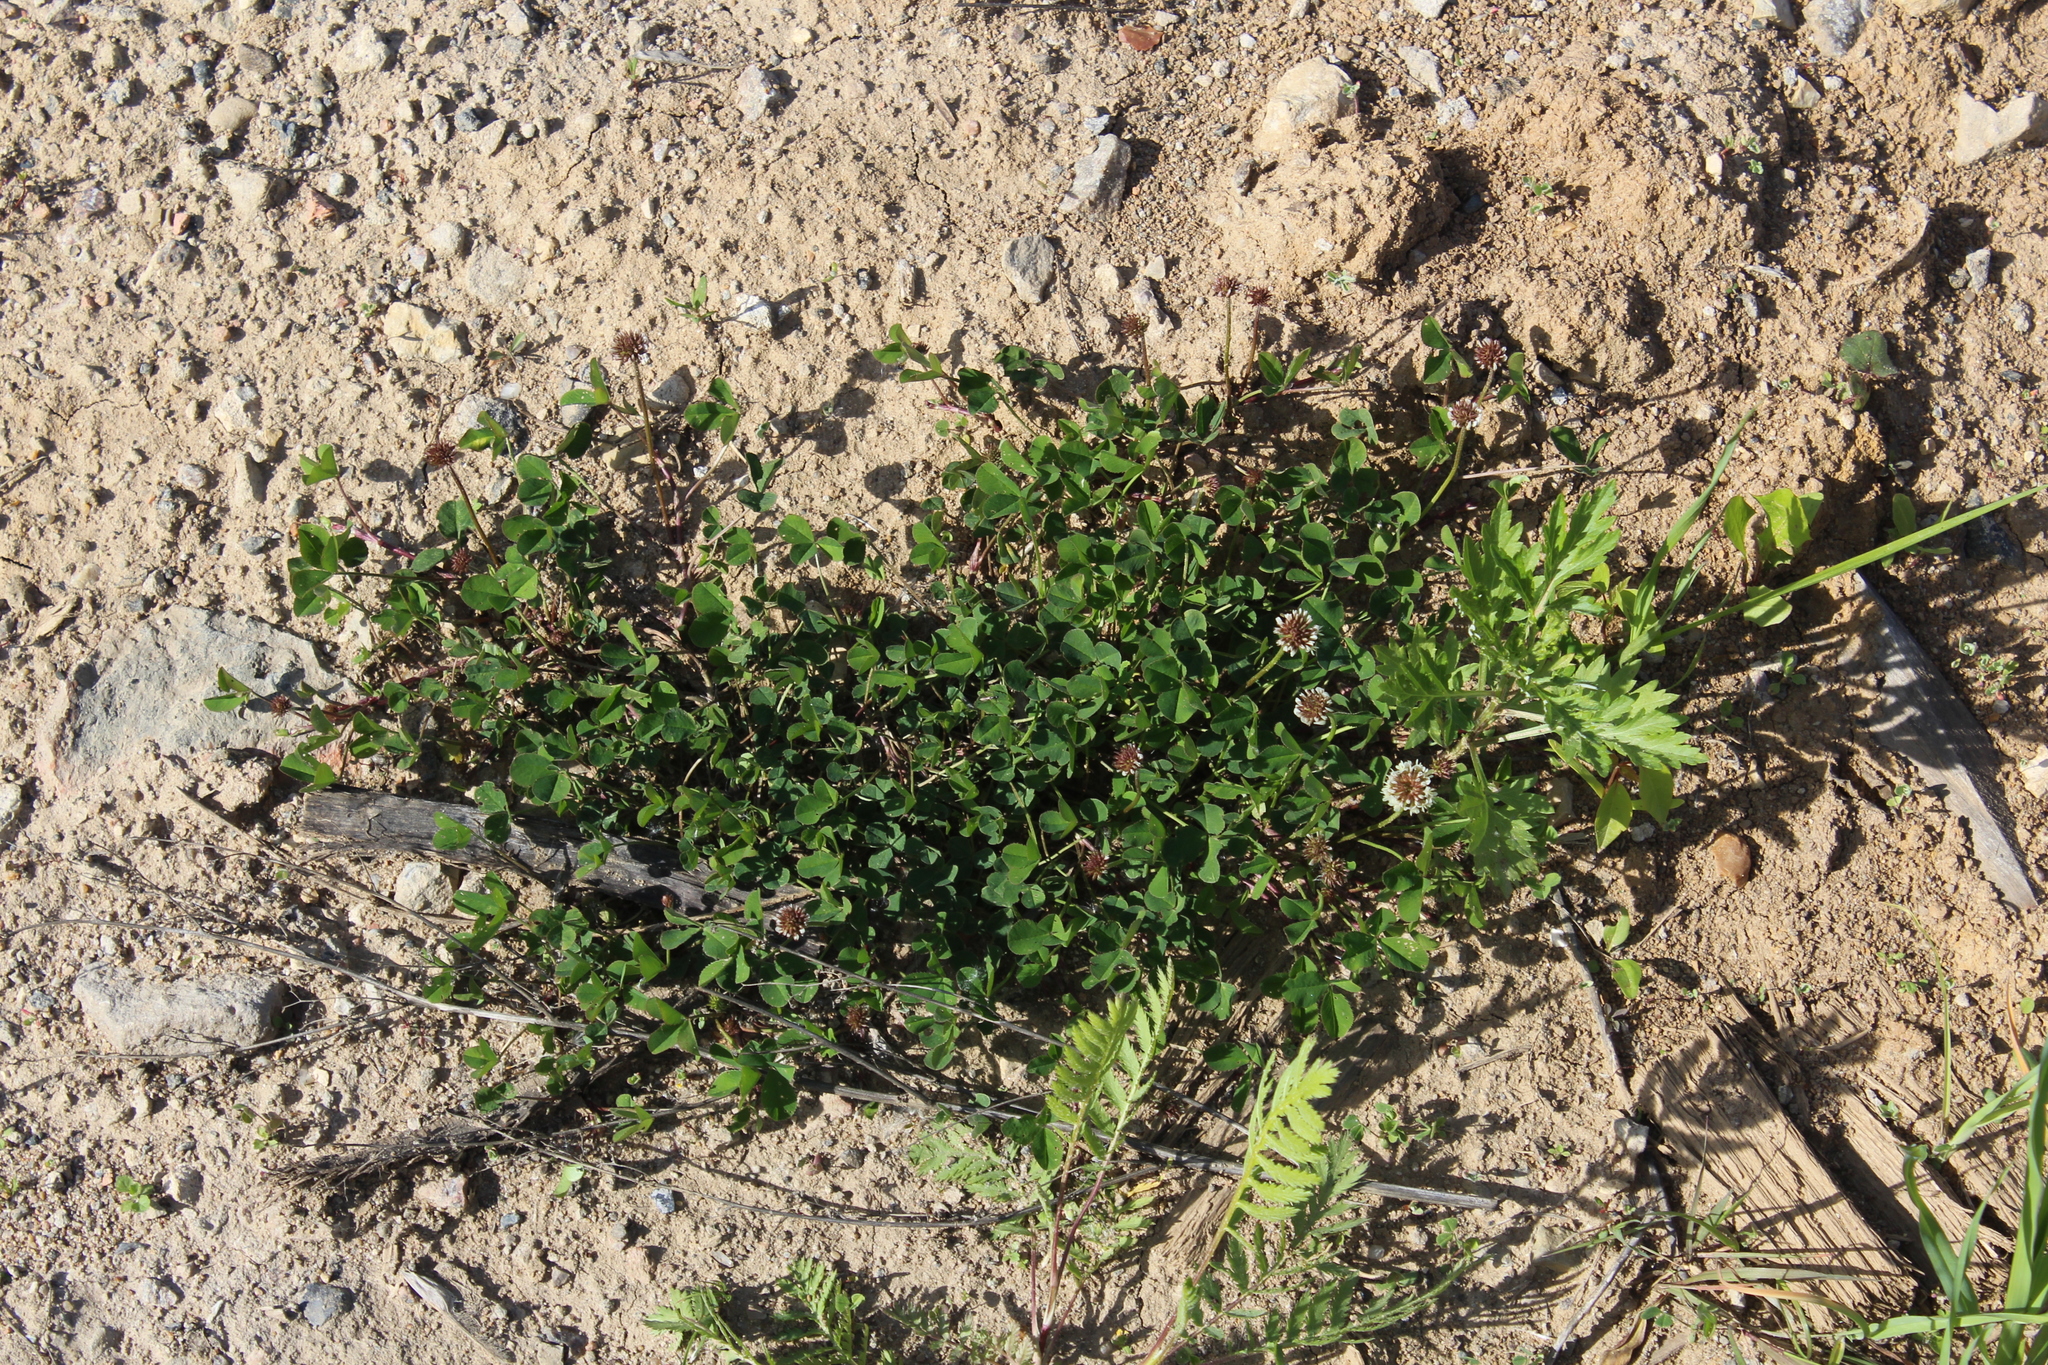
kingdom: Plantae
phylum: Tracheophyta
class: Magnoliopsida
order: Fabales
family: Fabaceae
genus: Trifolium
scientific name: Trifolium repens
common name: White clover
